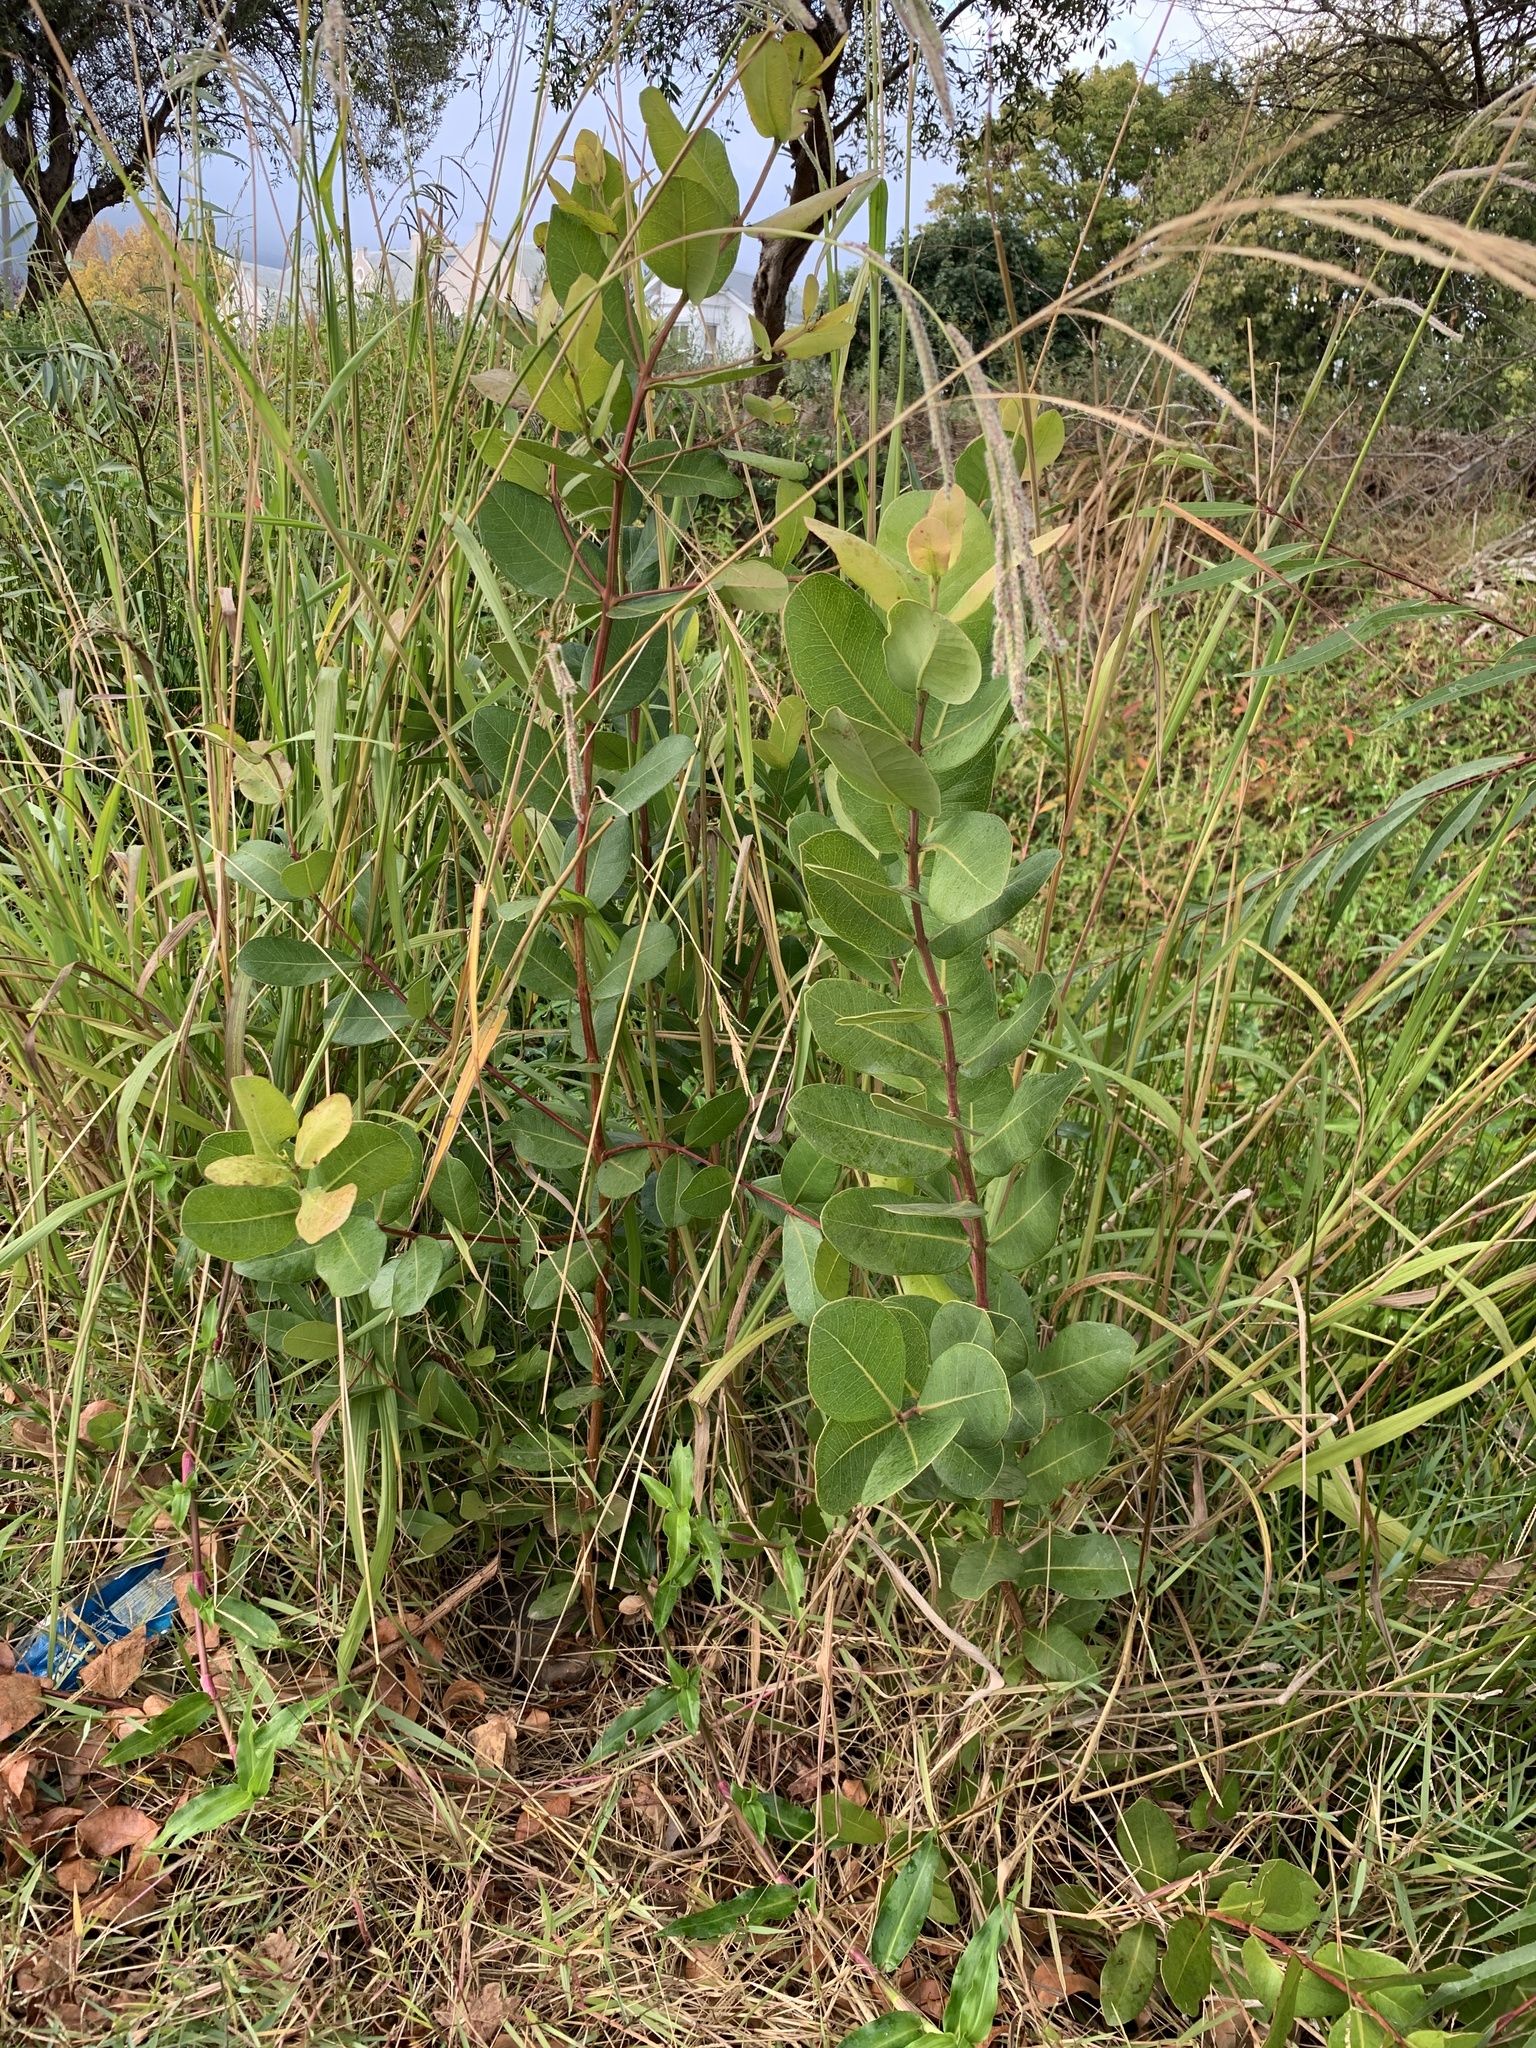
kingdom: Plantae
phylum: Tracheophyta
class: Magnoliopsida
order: Myrtales
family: Myrtaceae
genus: Syzygium
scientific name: Syzygium cordatum
